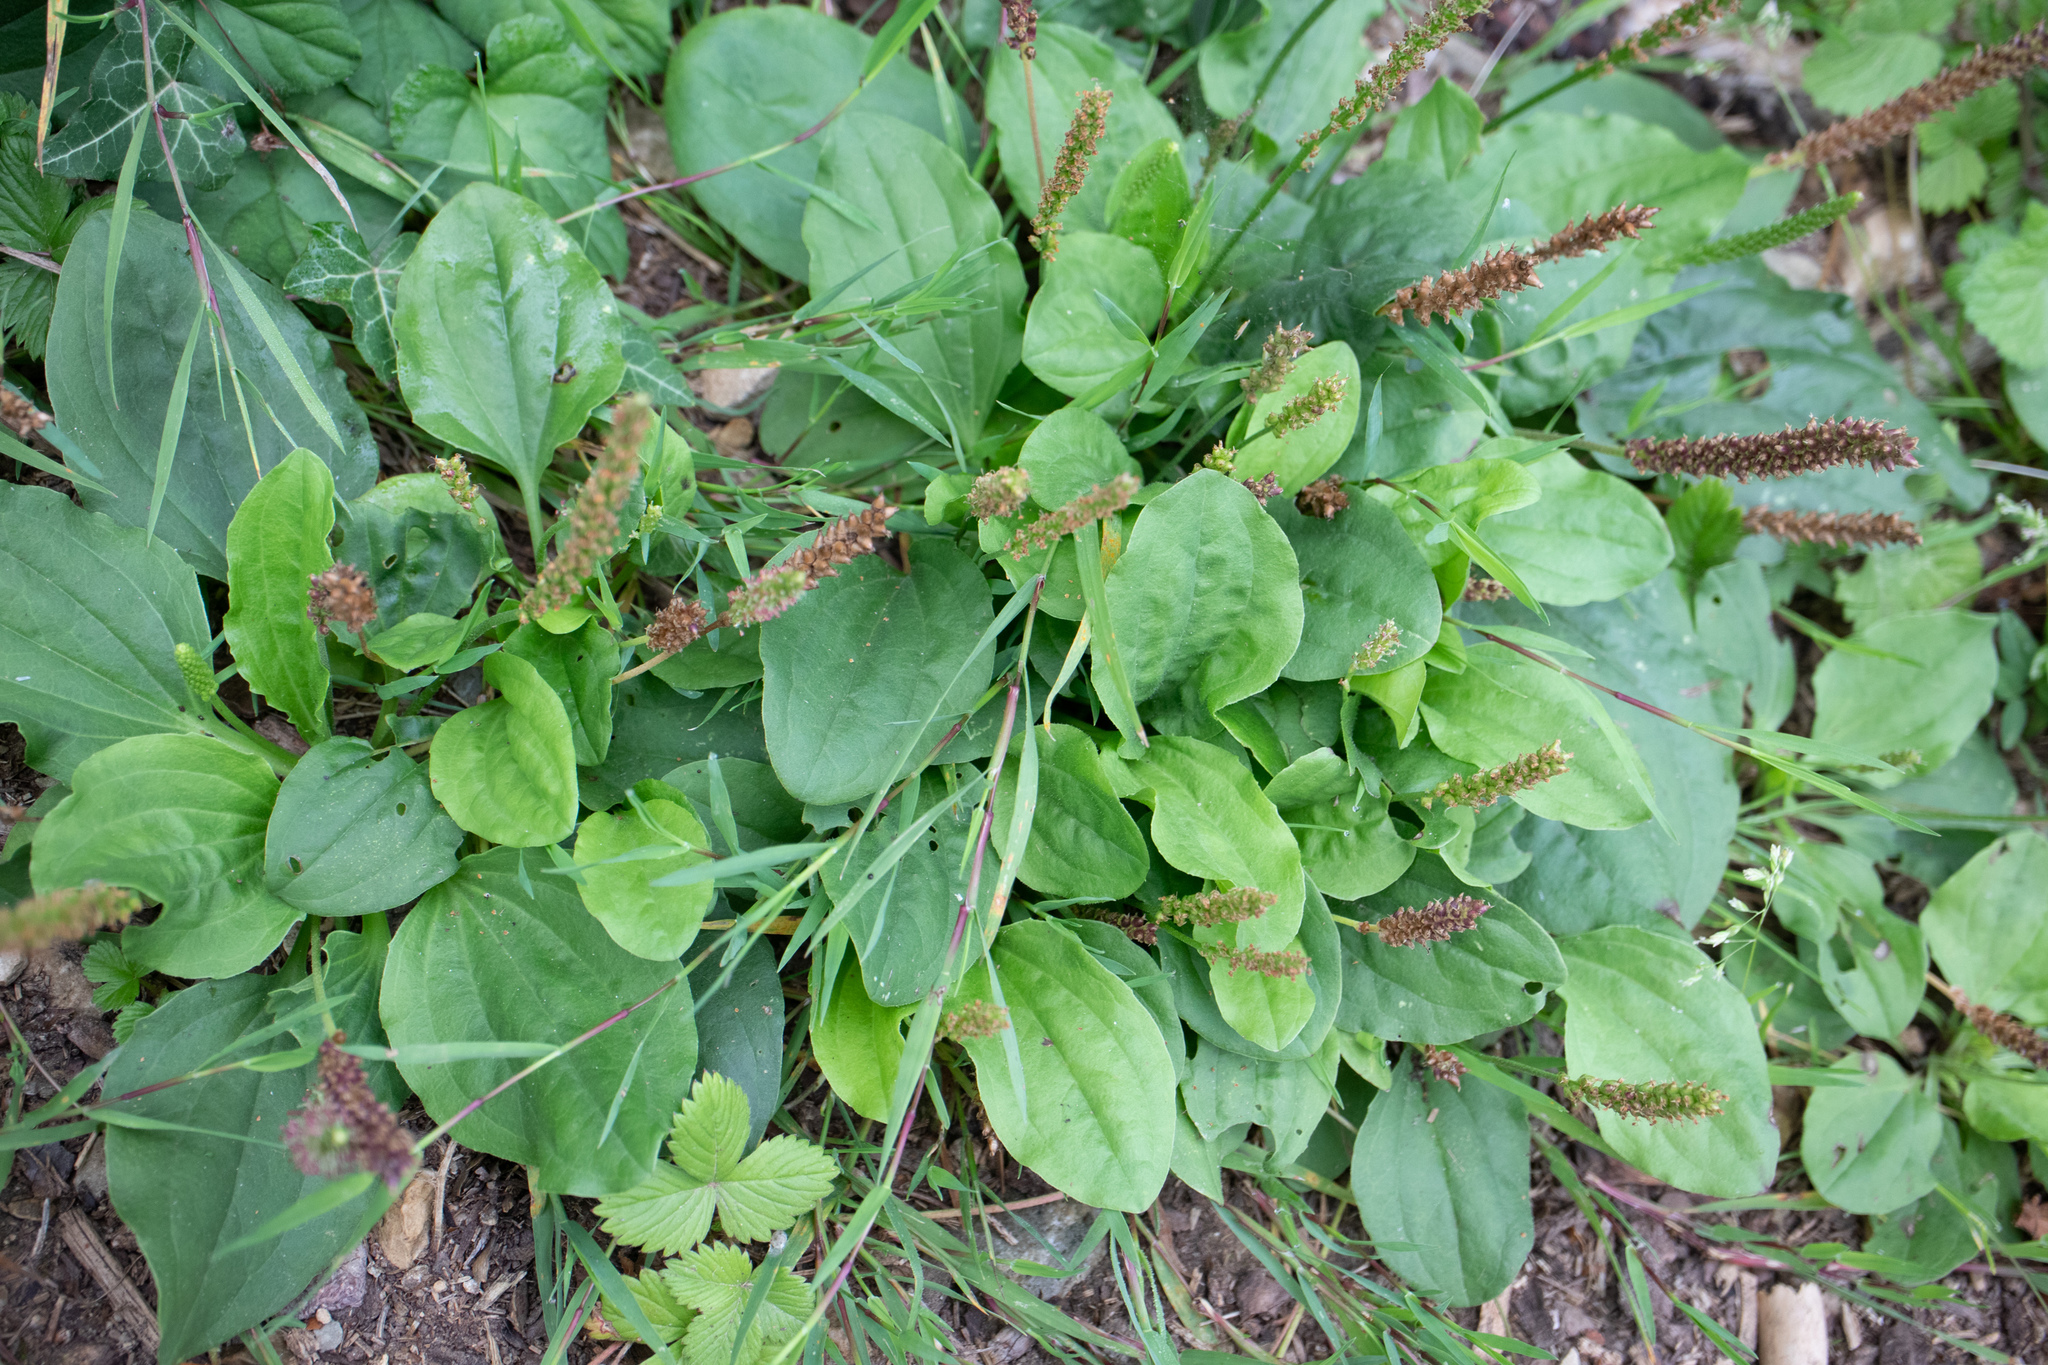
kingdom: Plantae
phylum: Tracheophyta
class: Magnoliopsida
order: Lamiales
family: Plantaginaceae
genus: Plantago
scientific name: Plantago major
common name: Common plantain
